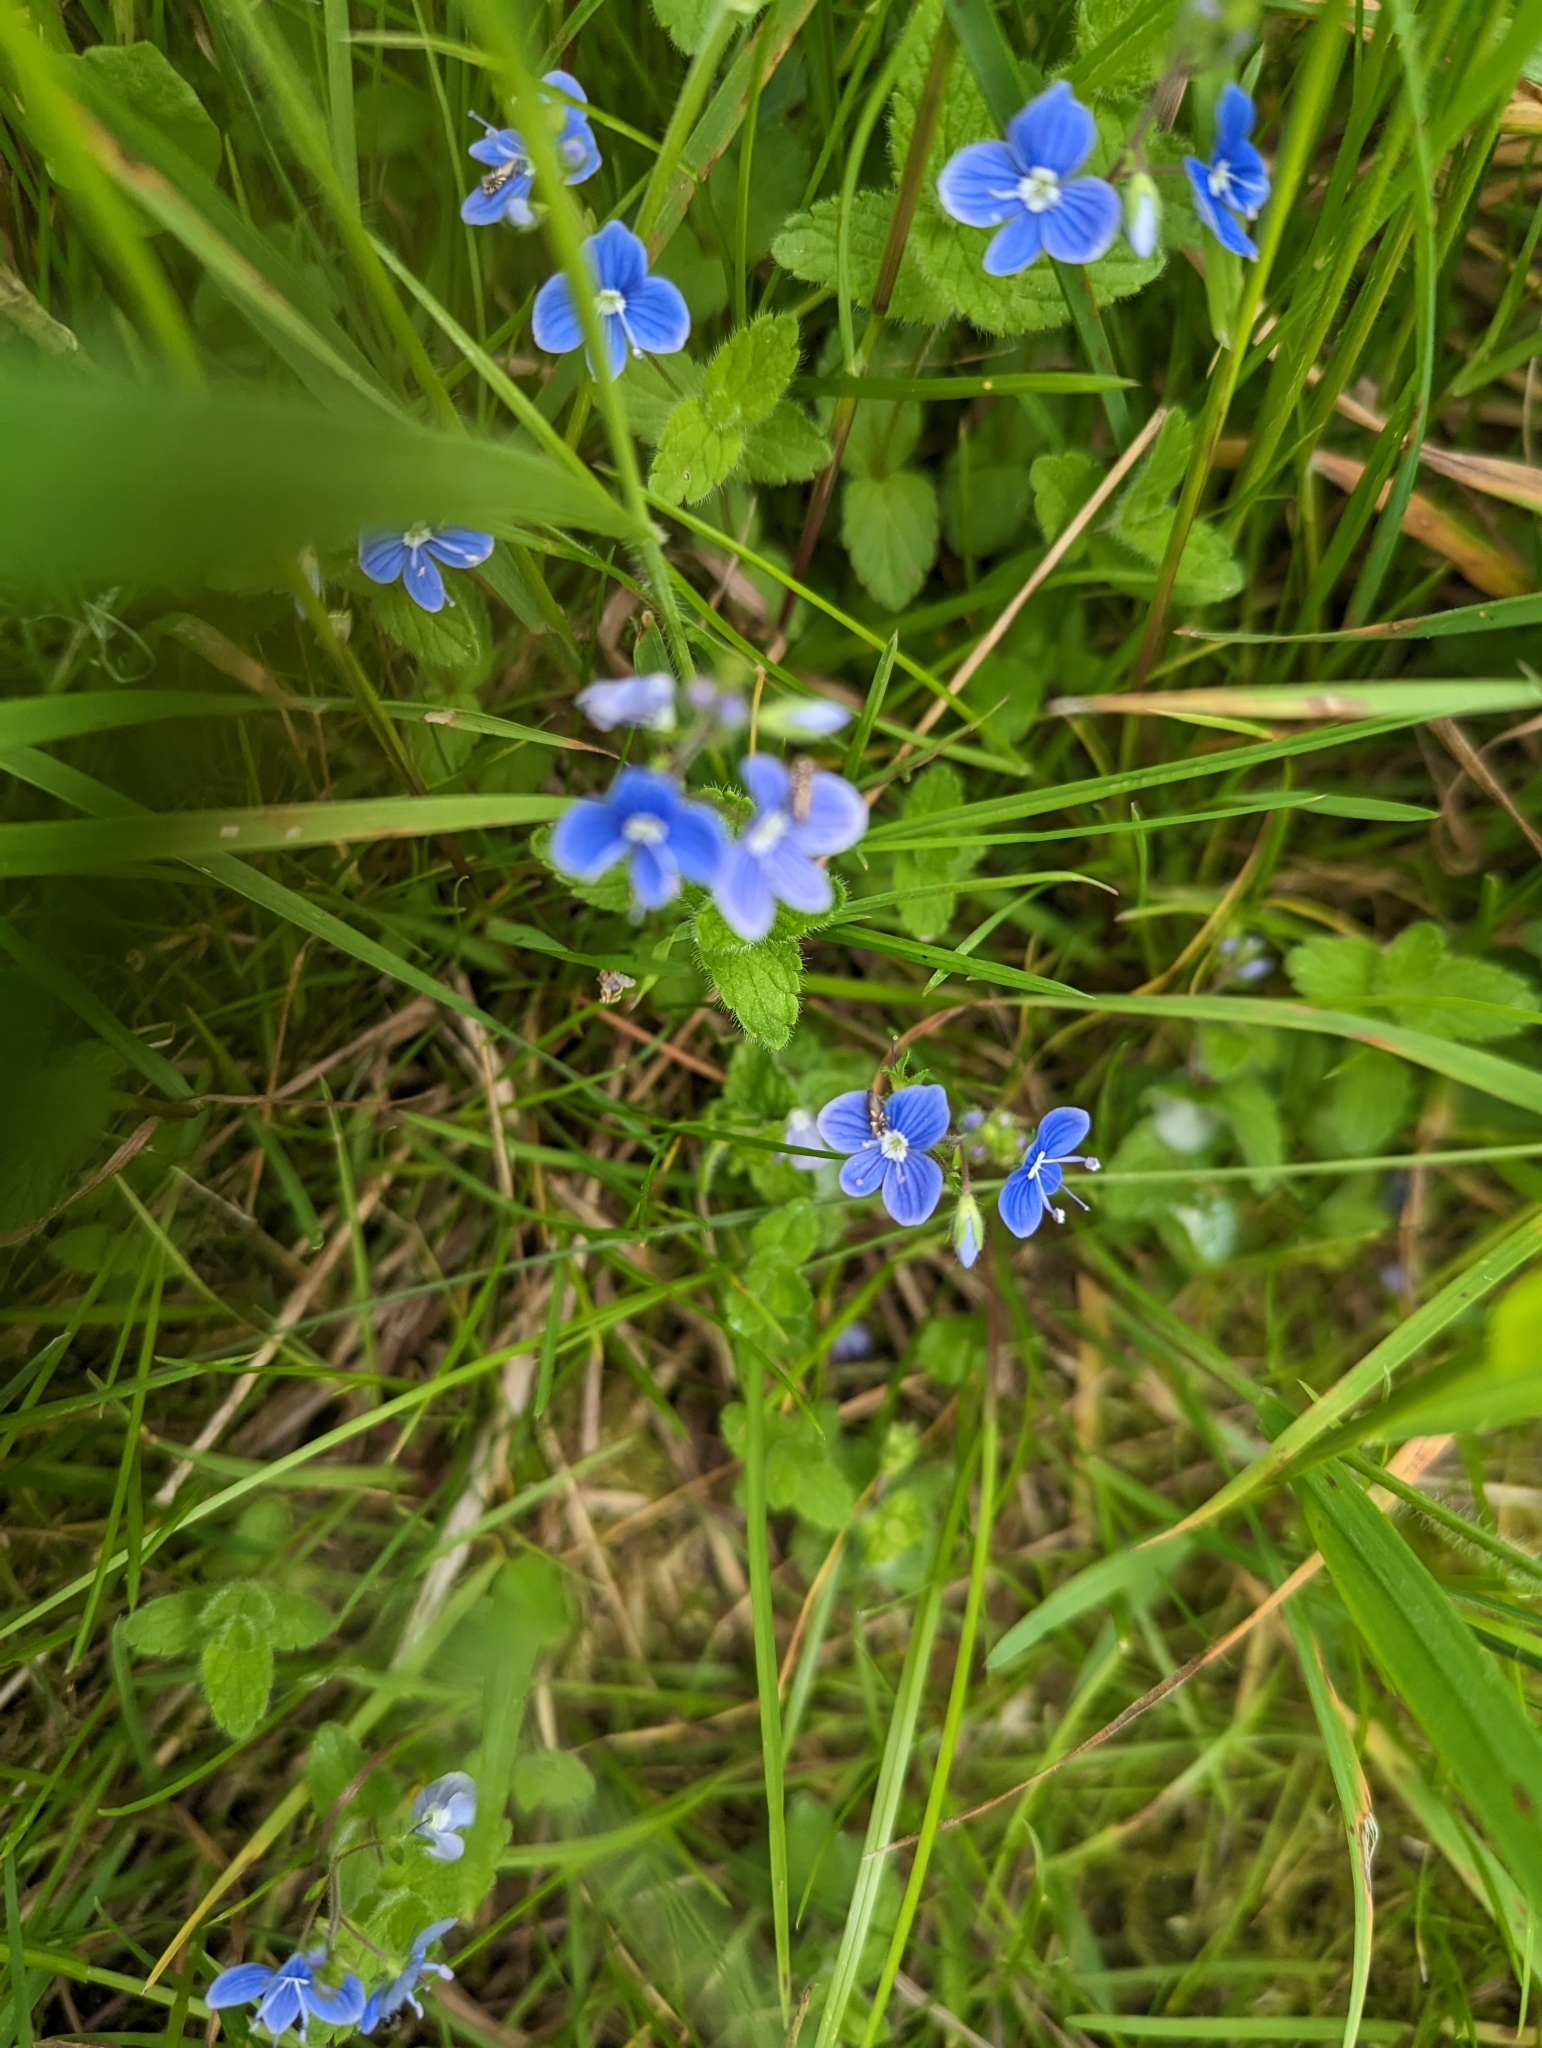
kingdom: Plantae
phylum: Tracheophyta
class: Magnoliopsida
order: Lamiales
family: Plantaginaceae
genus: Veronica
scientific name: Veronica chamaedrys
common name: Germander speedwell
